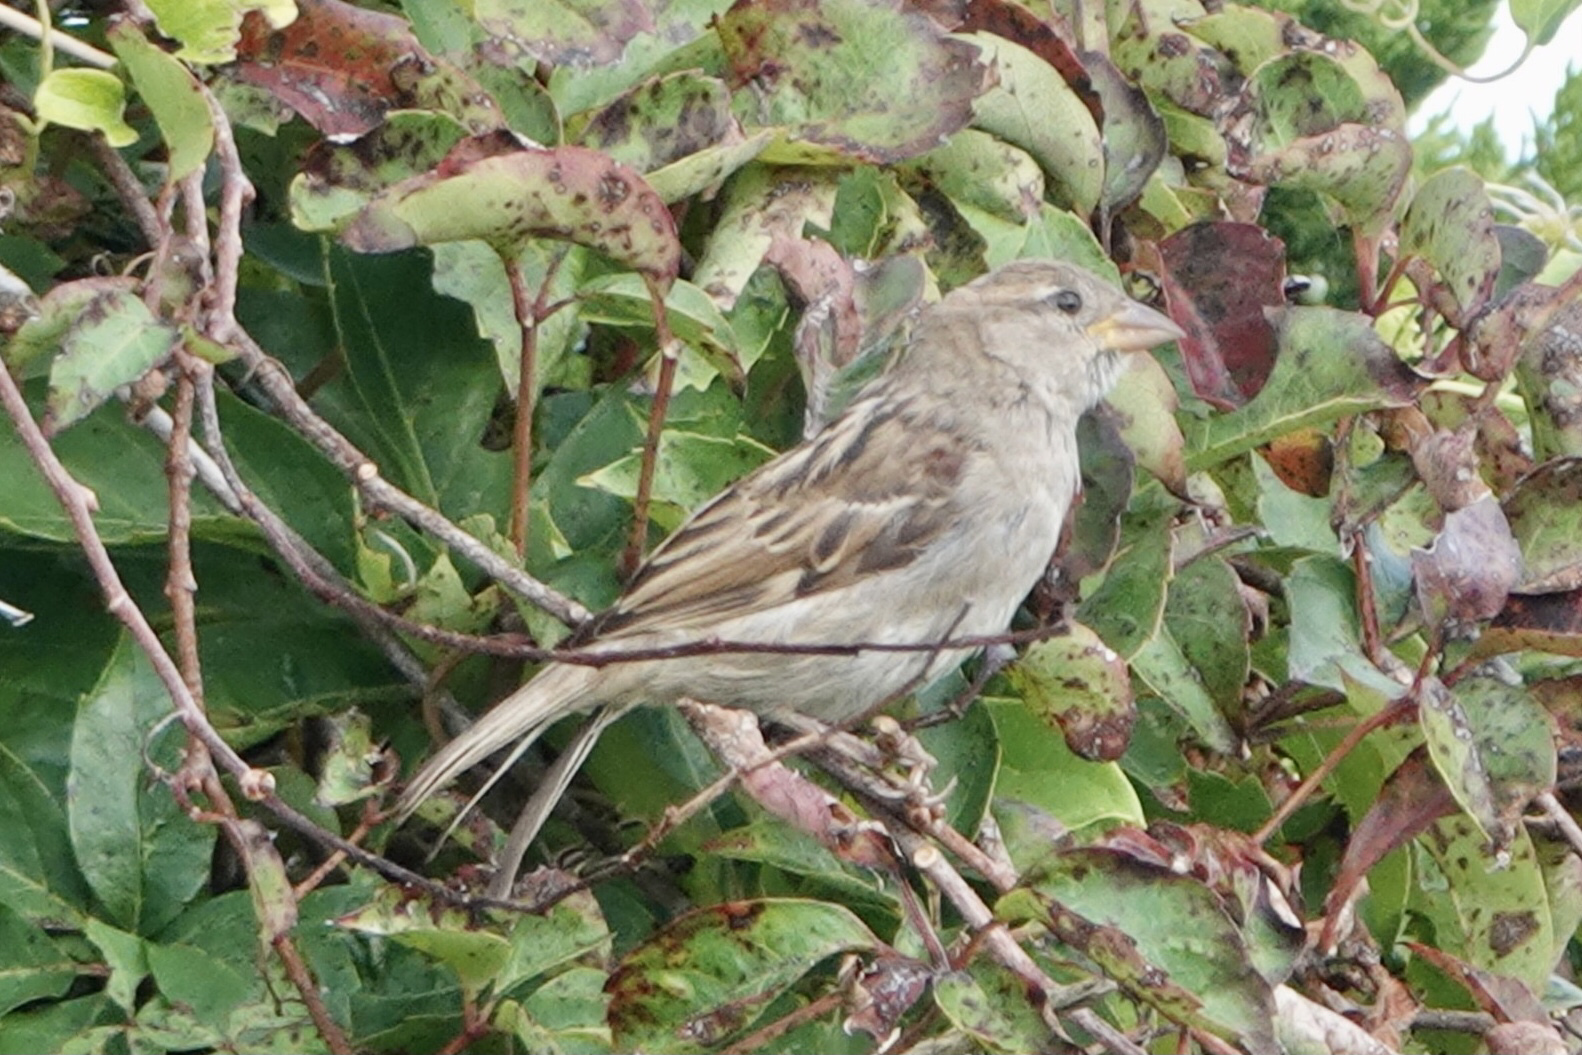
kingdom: Animalia
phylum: Chordata
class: Aves
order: Passeriformes
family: Passeridae
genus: Passer
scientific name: Passer domesticus
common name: House sparrow
